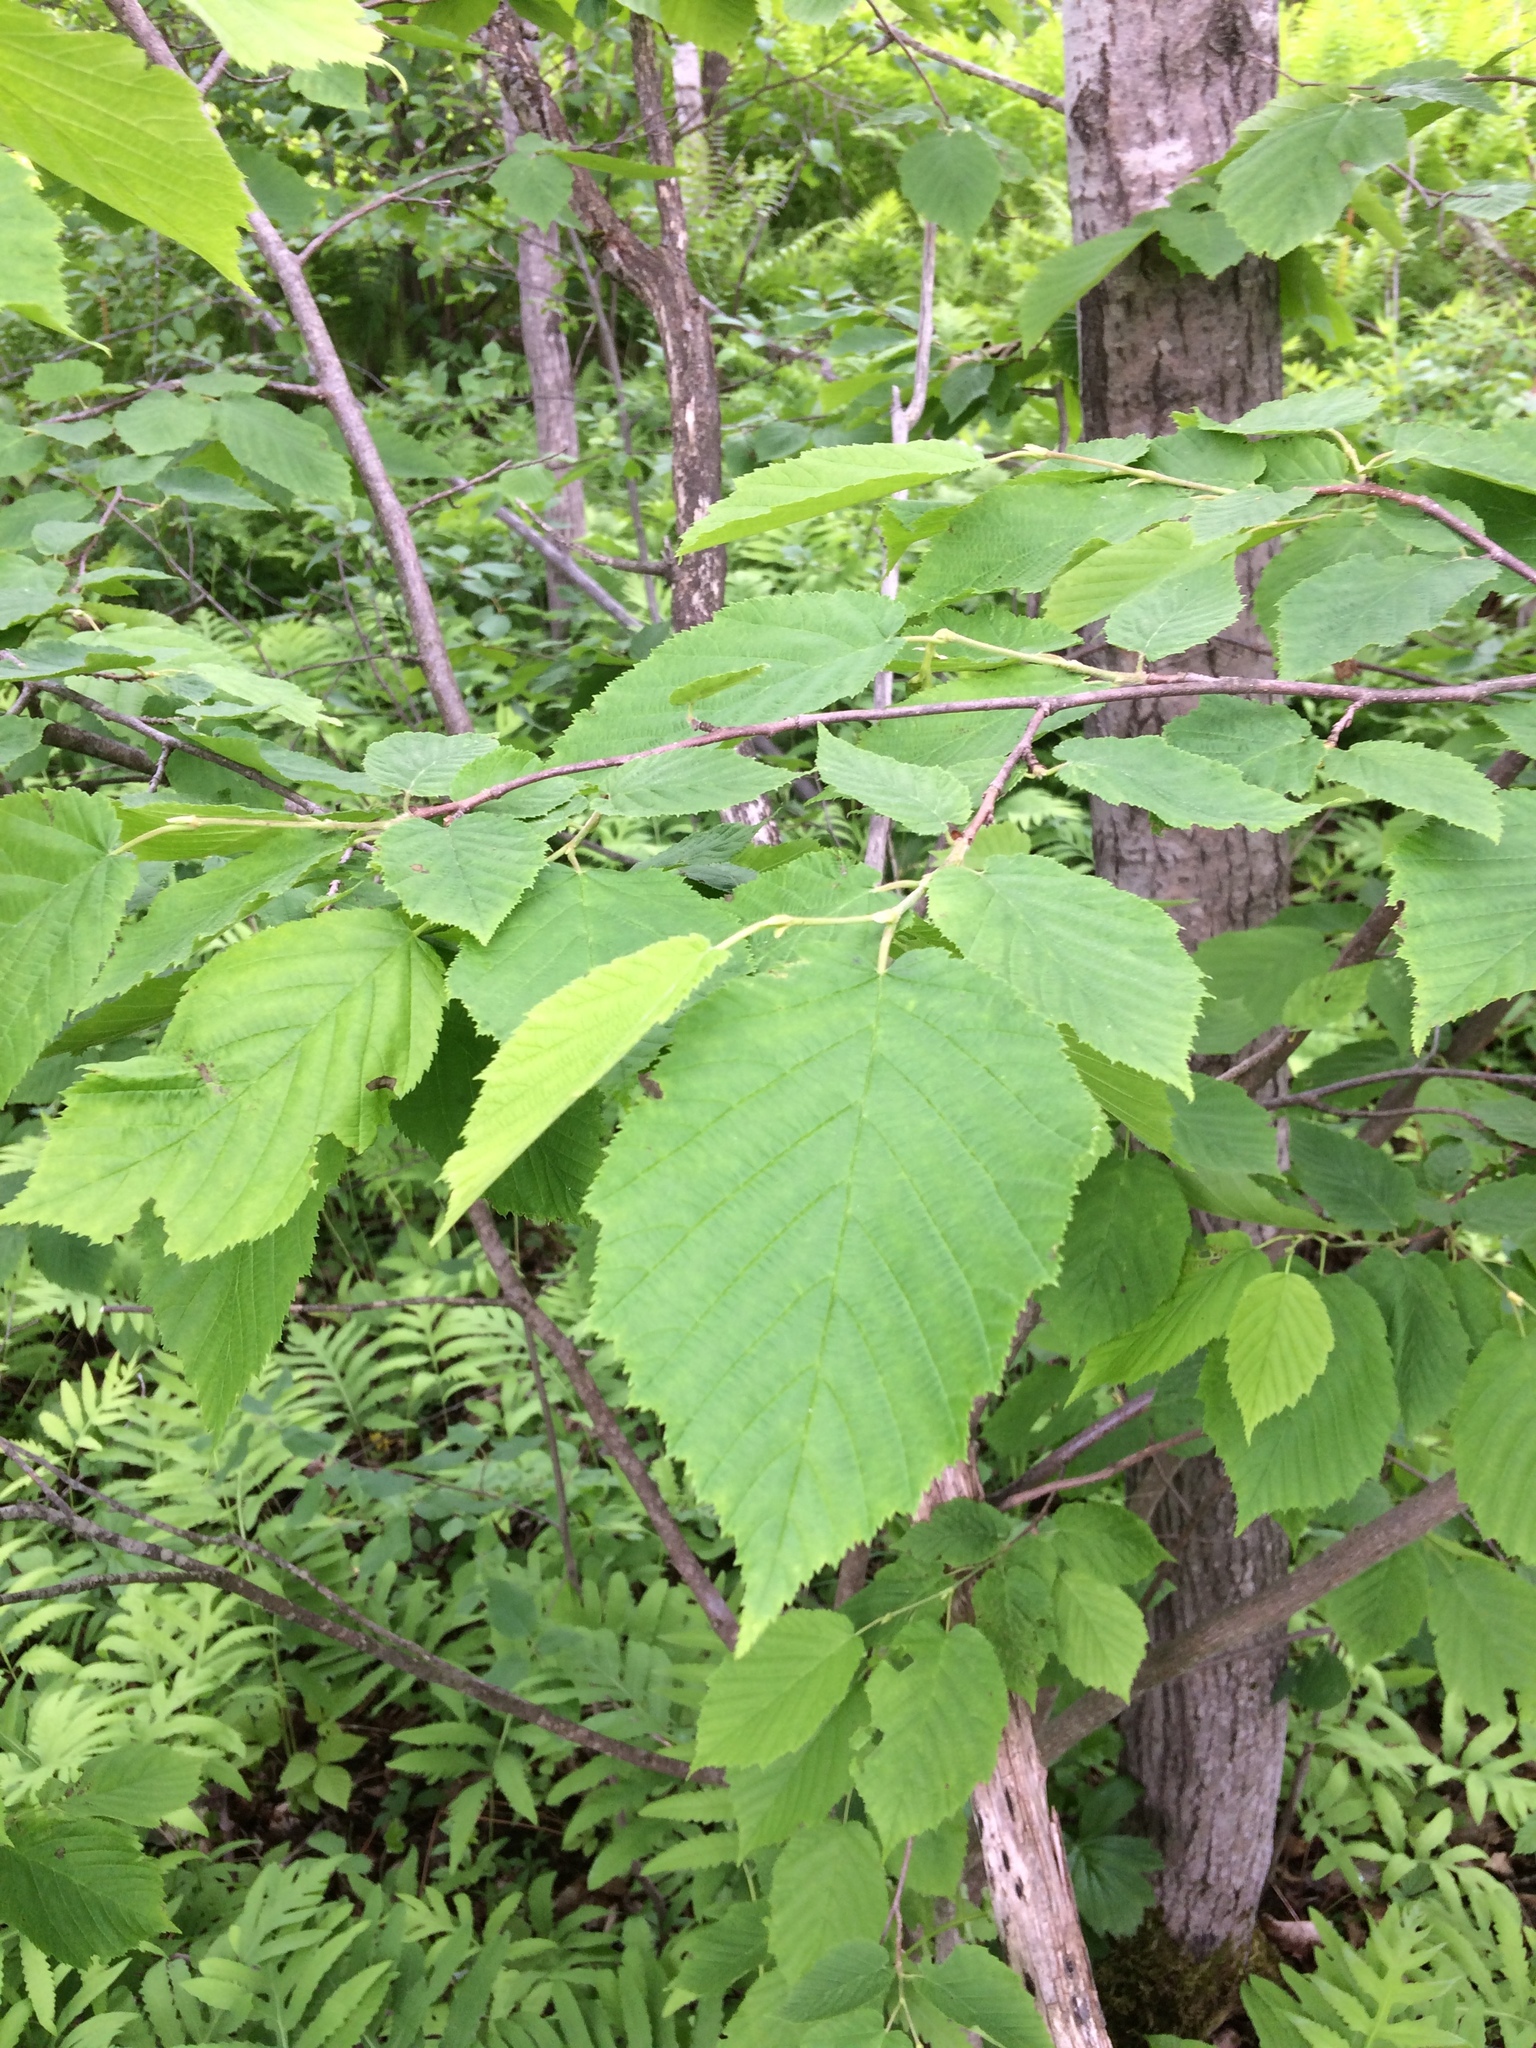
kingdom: Plantae
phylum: Tracheophyta
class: Magnoliopsida
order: Fagales
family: Betulaceae
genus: Corylus
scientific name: Corylus cornuta
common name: Beaked hazel
